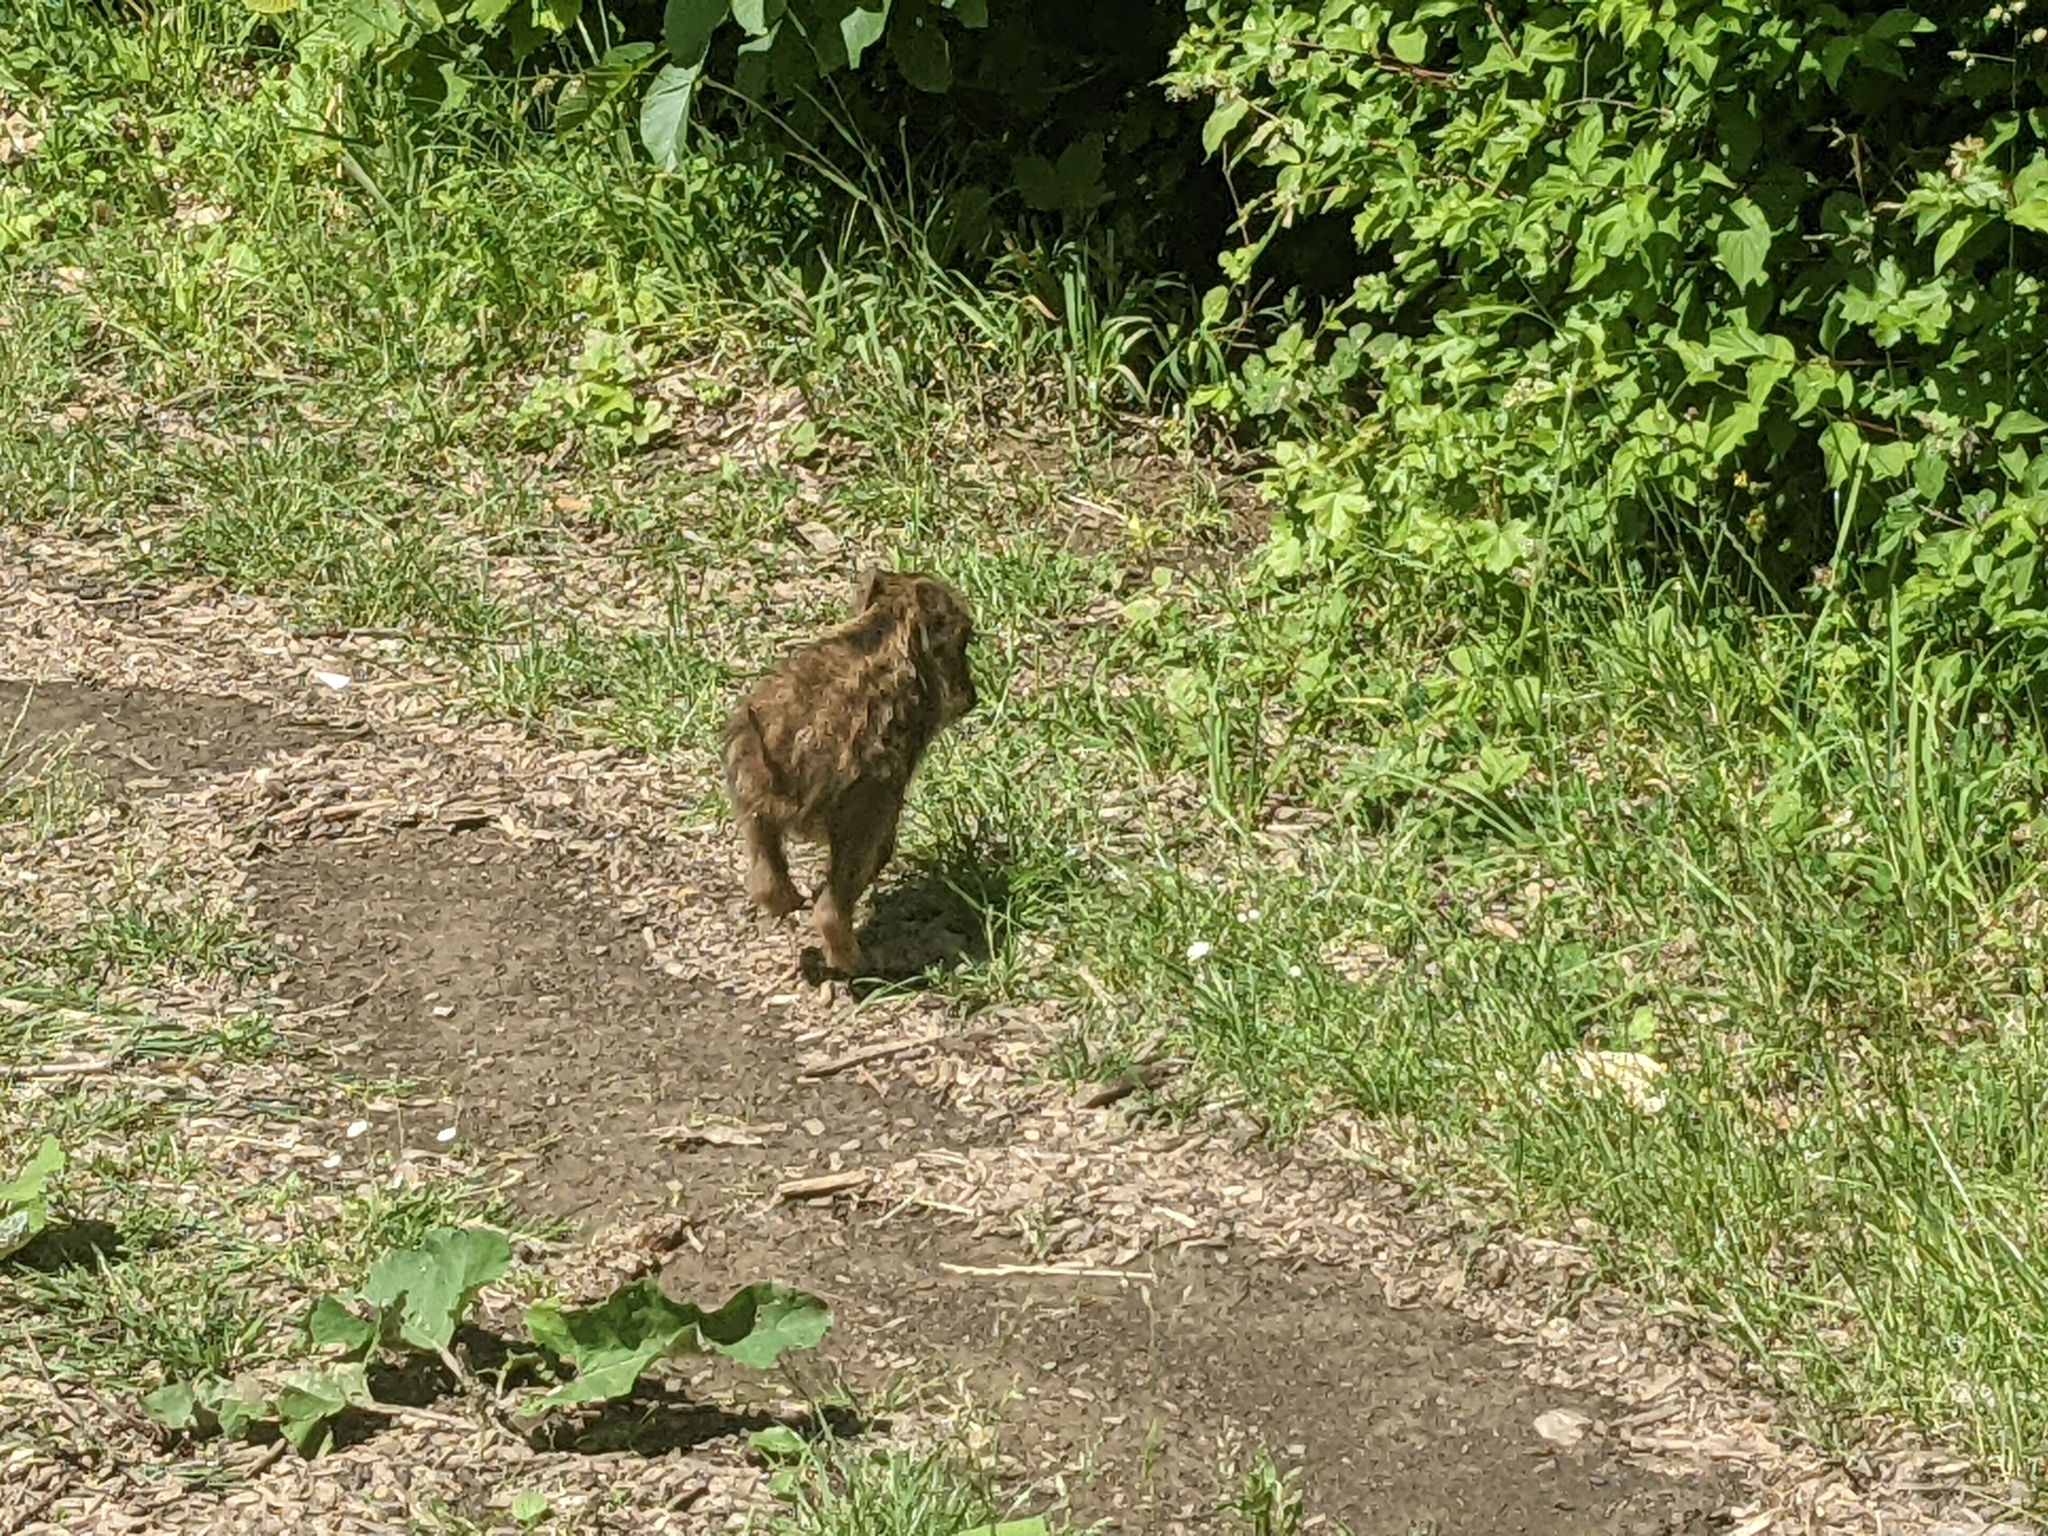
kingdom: Animalia
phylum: Chordata
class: Mammalia
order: Artiodactyla
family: Suidae
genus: Sus
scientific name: Sus scrofa
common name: Wild boar
